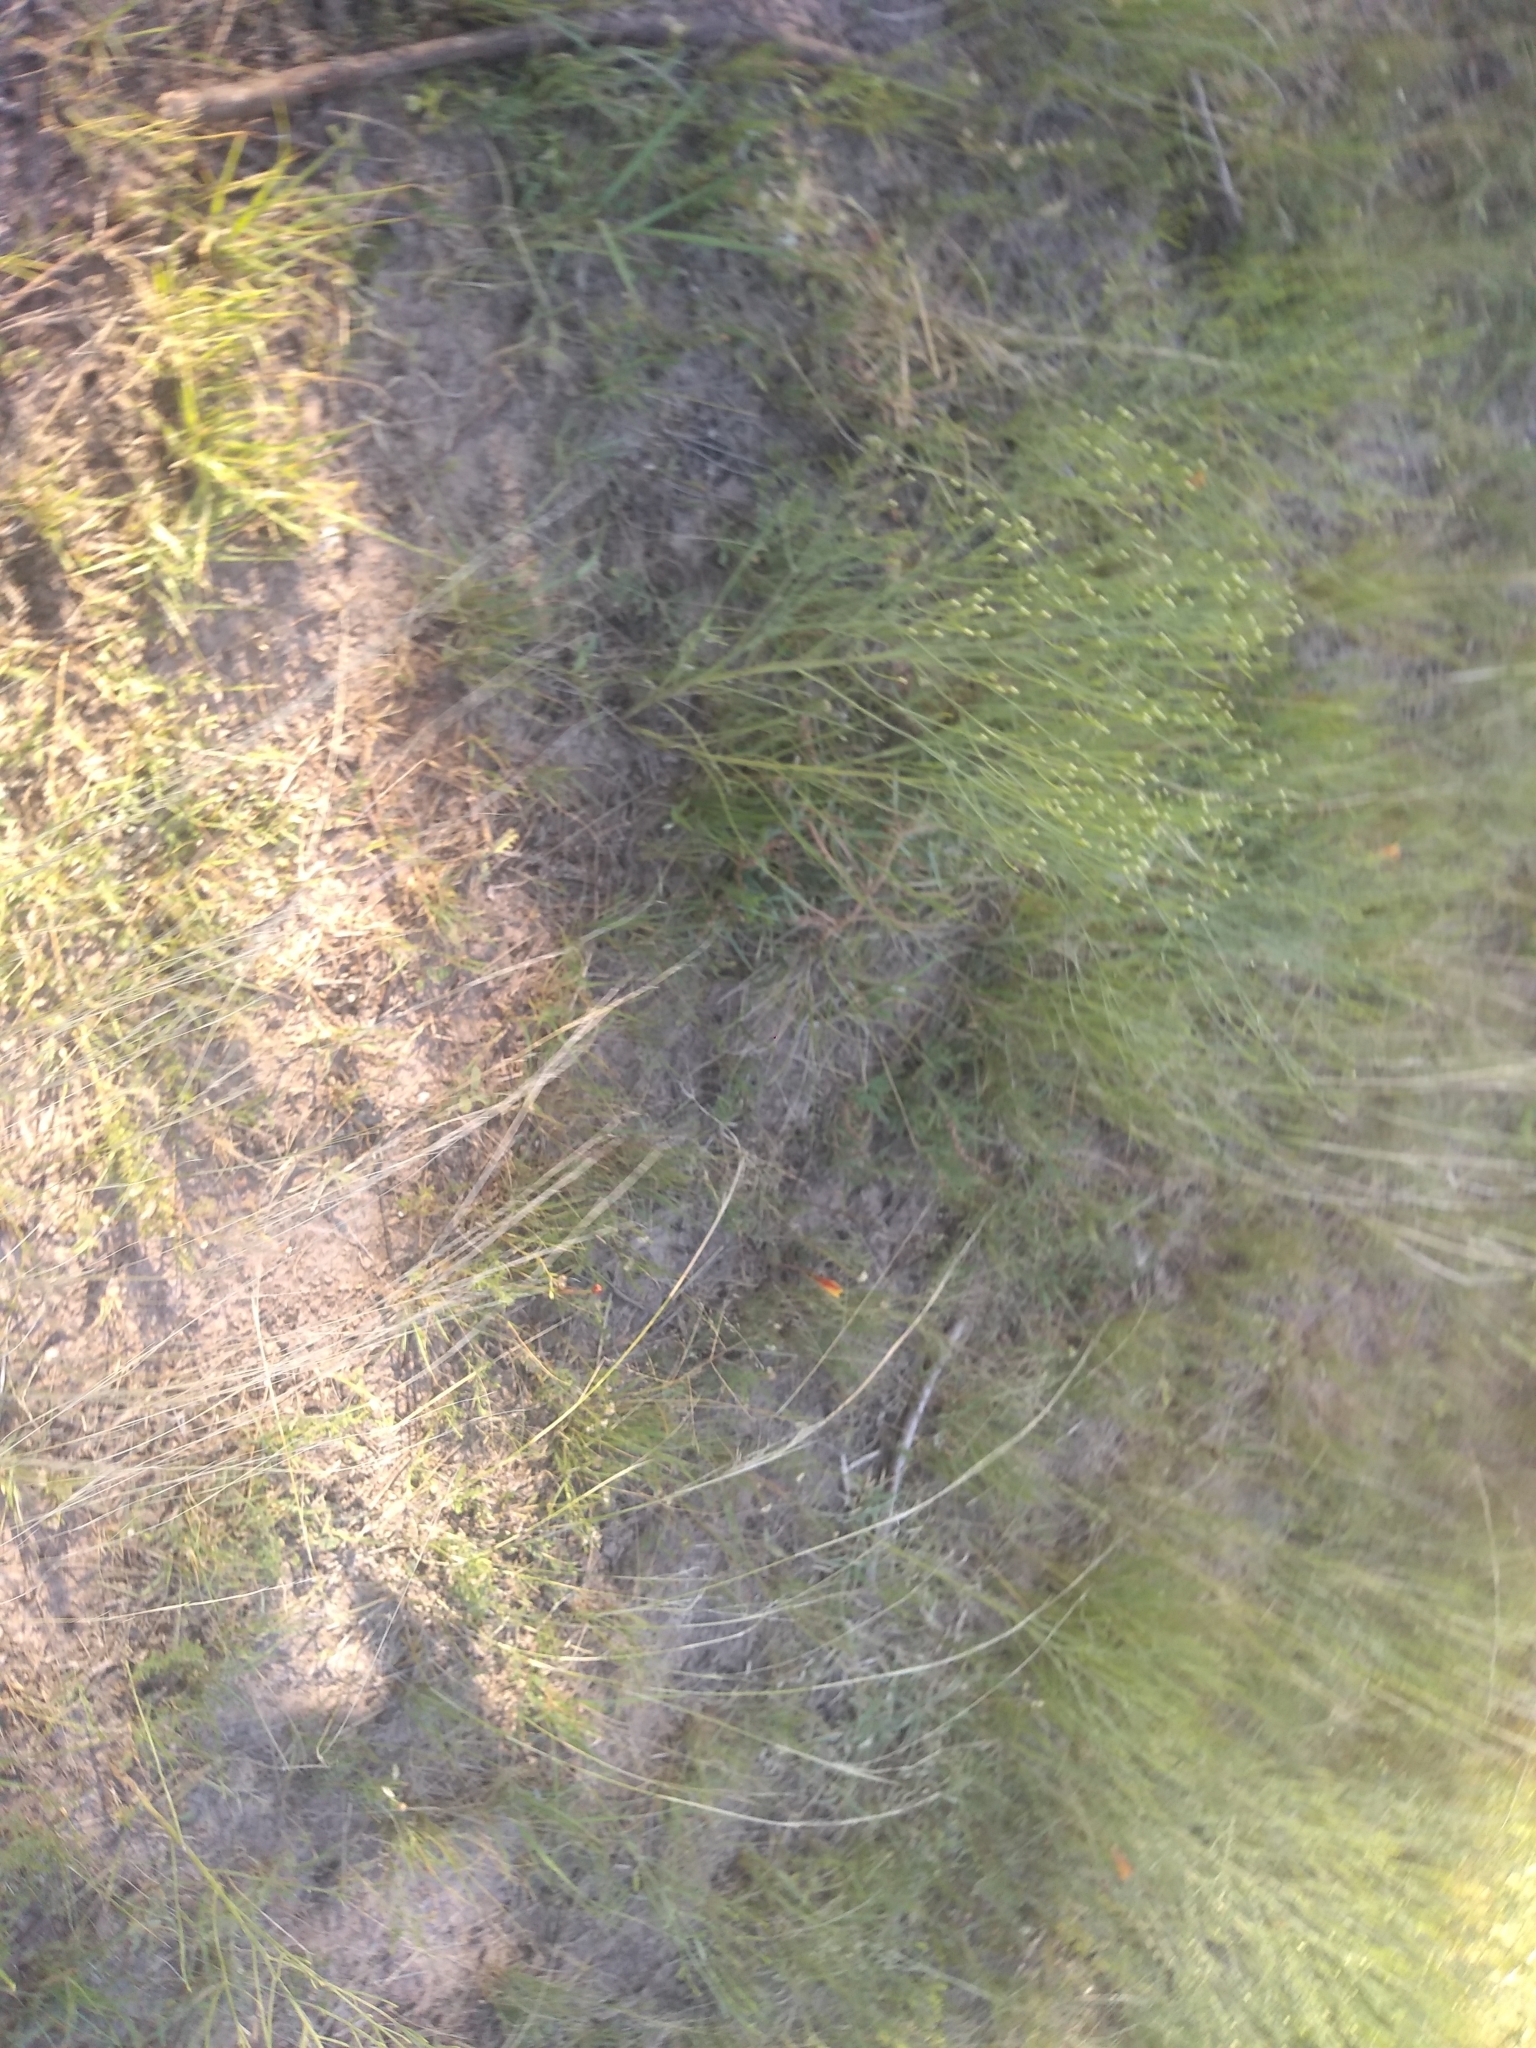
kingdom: Plantae
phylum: Tracheophyta
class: Magnoliopsida
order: Asterales
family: Asteraceae
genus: Baccharis
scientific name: Baccharis notosergila
